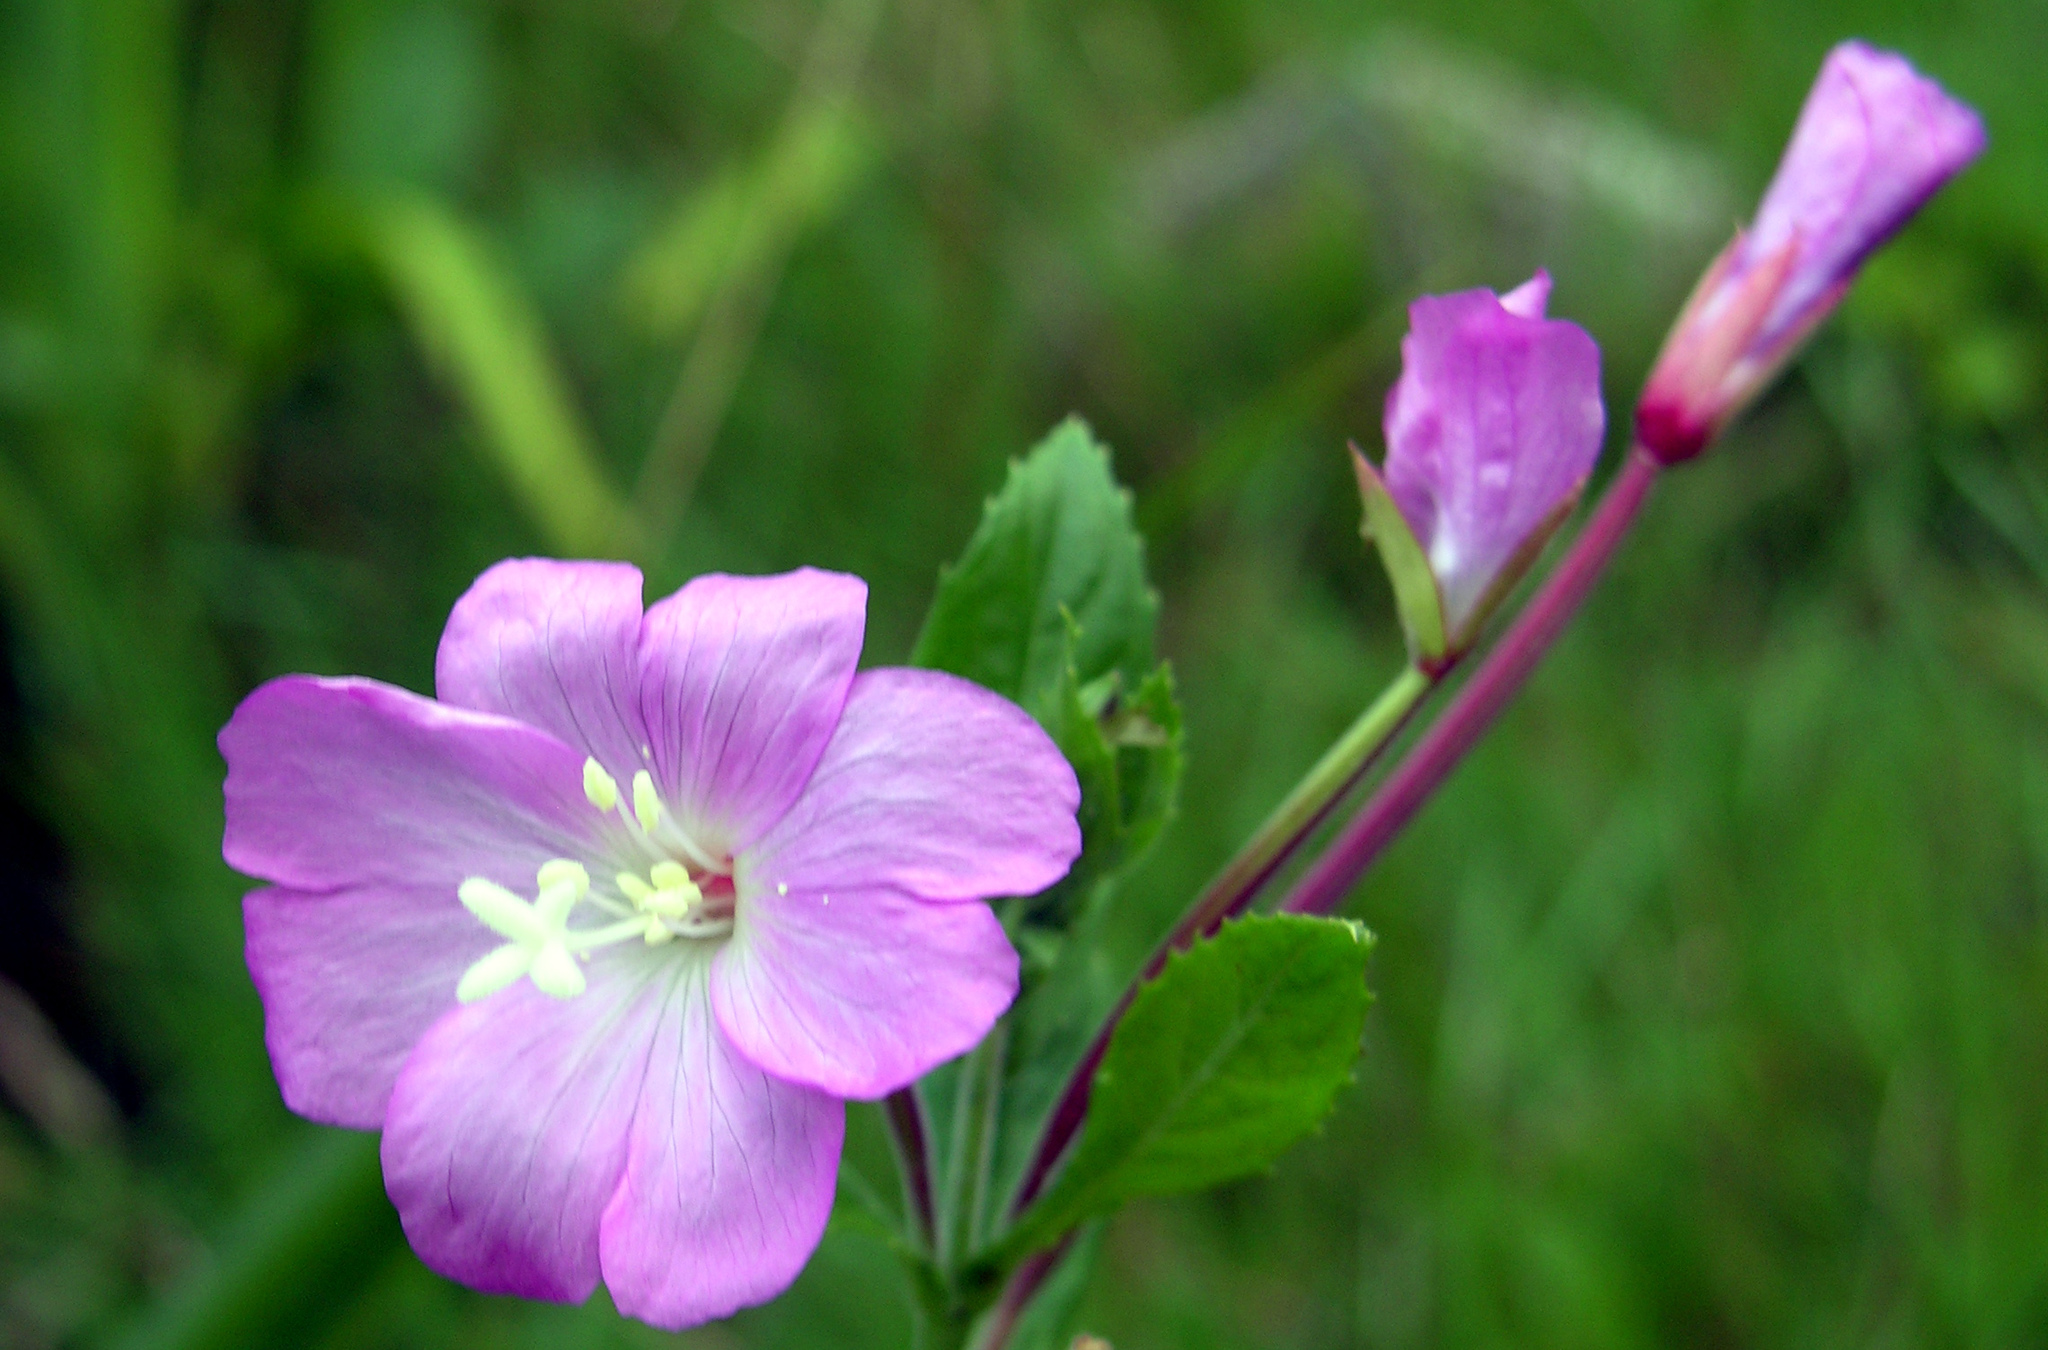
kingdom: Plantae
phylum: Tracheophyta
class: Magnoliopsida
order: Myrtales
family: Onagraceae
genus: Epilobium
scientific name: Epilobium hirsutum
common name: Great willowherb
